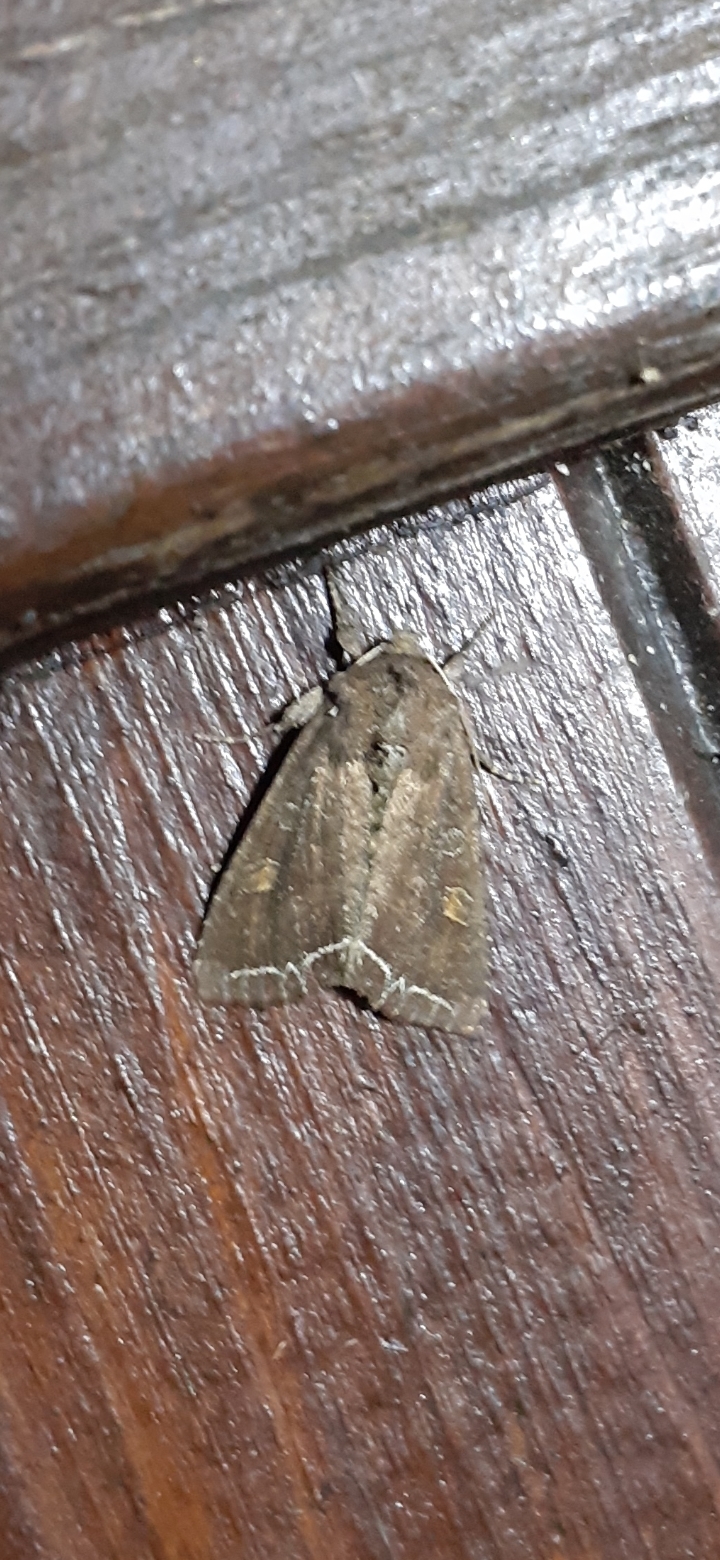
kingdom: Animalia
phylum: Arthropoda
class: Insecta
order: Lepidoptera
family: Noctuidae
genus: Lacanobia
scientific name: Lacanobia oleracea
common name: Bright-line brown-eye
